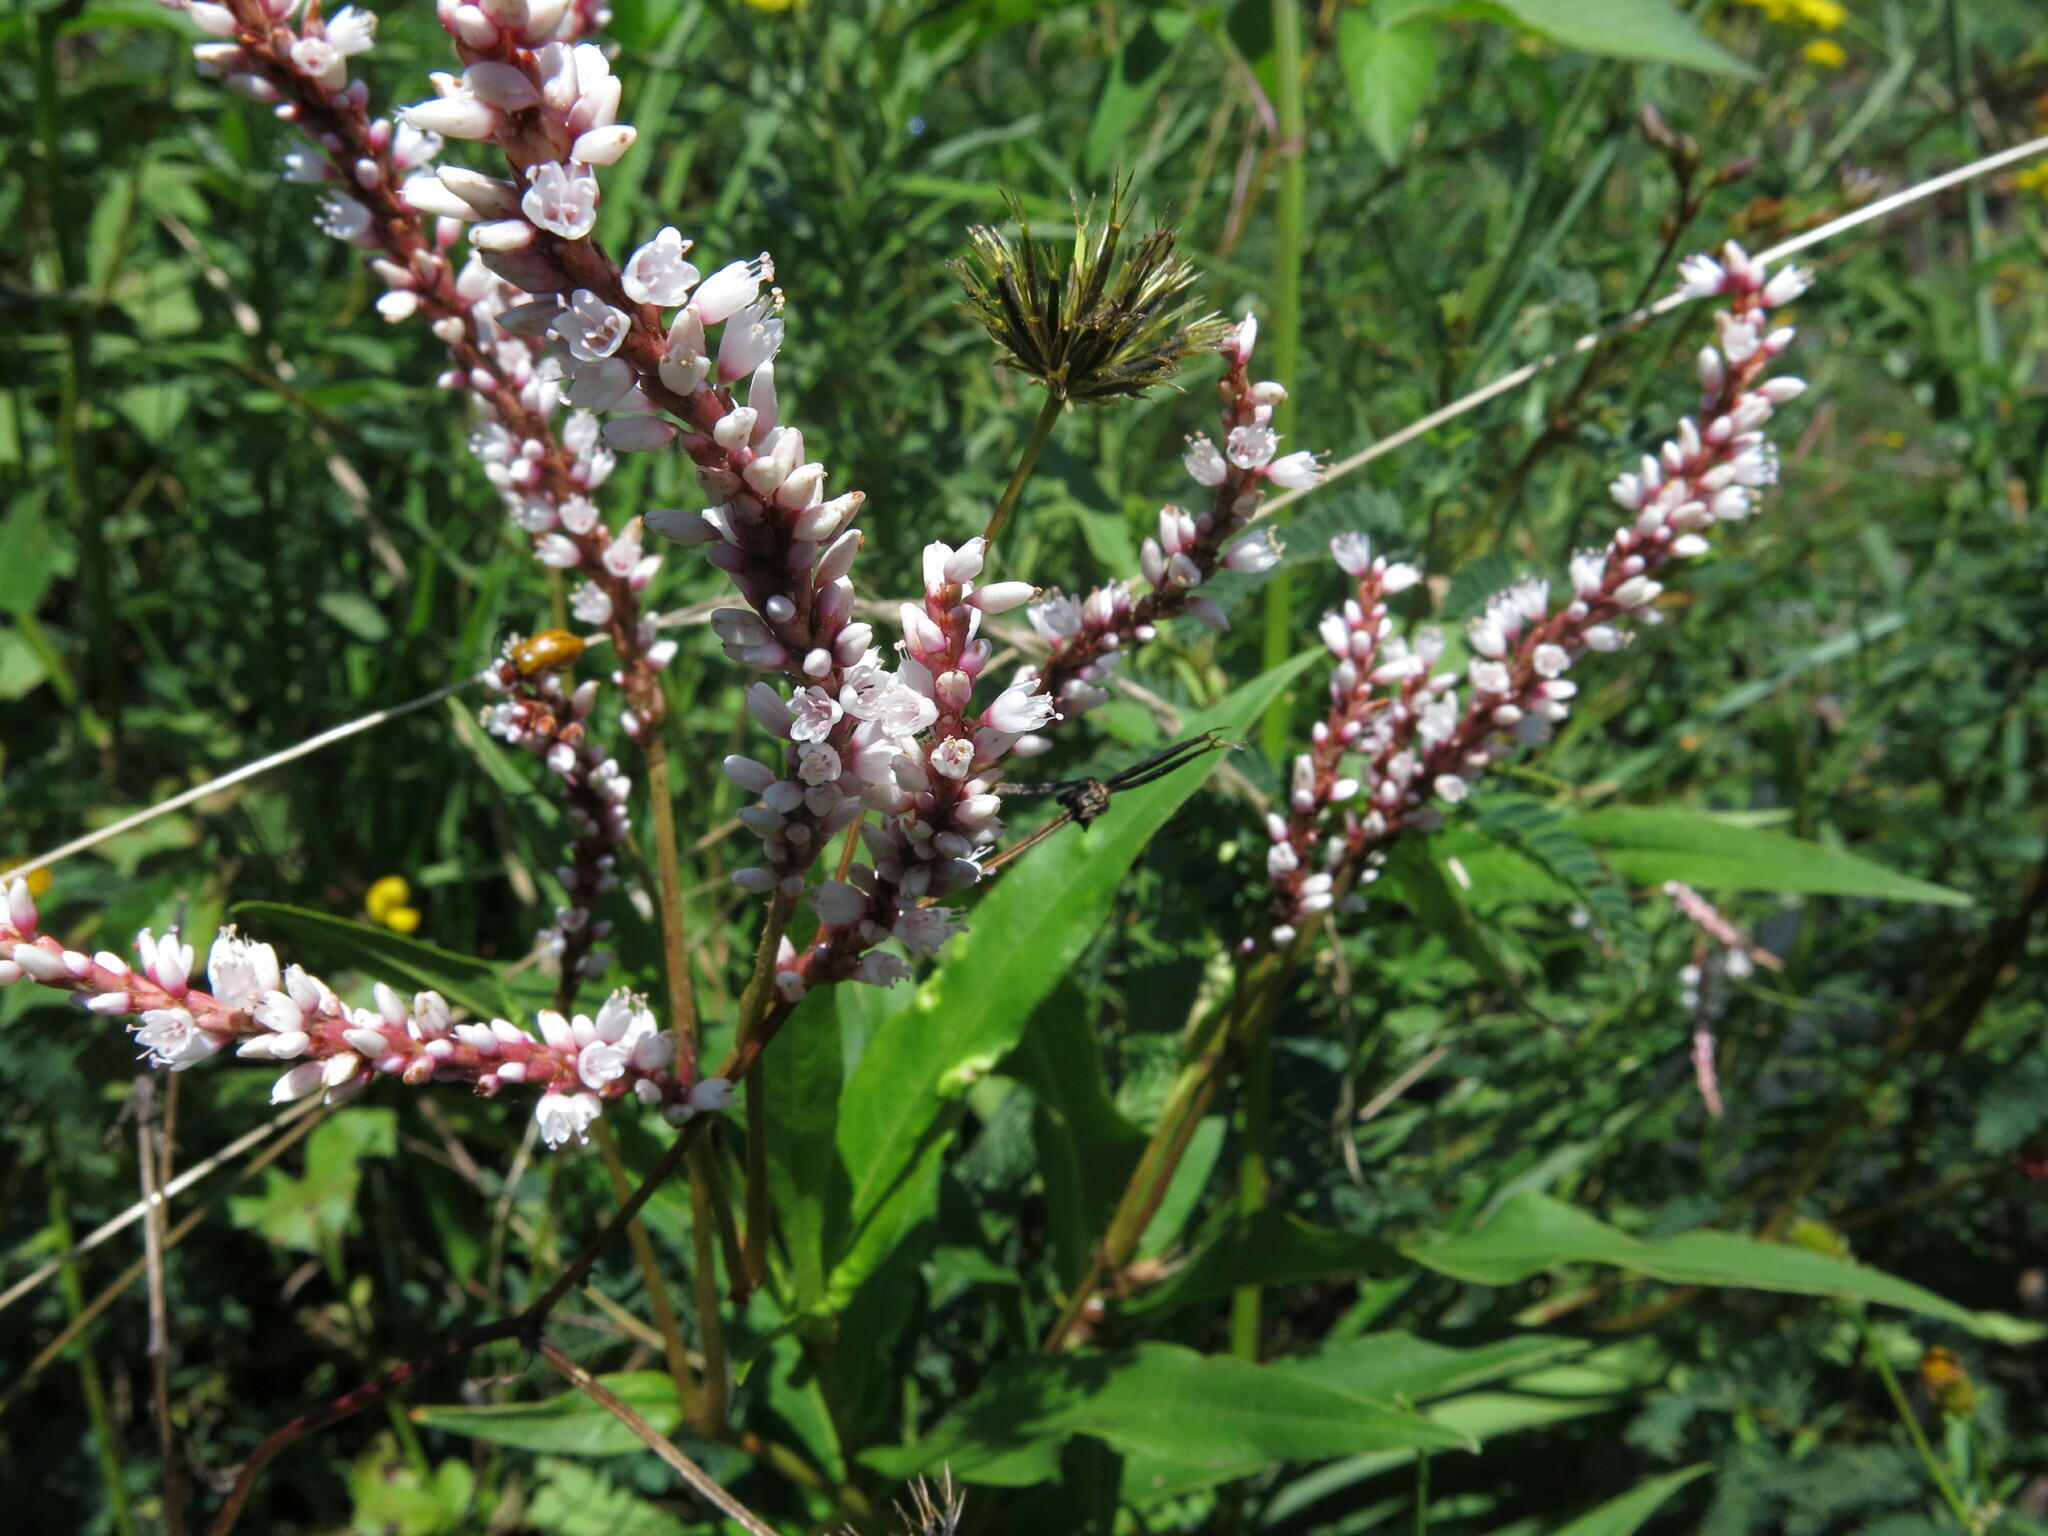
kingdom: Plantae
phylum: Tracheophyta
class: Magnoliopsida
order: Caryophyllales
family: Polygonaceae
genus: Persicaria
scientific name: Persicaria madagascariensis
